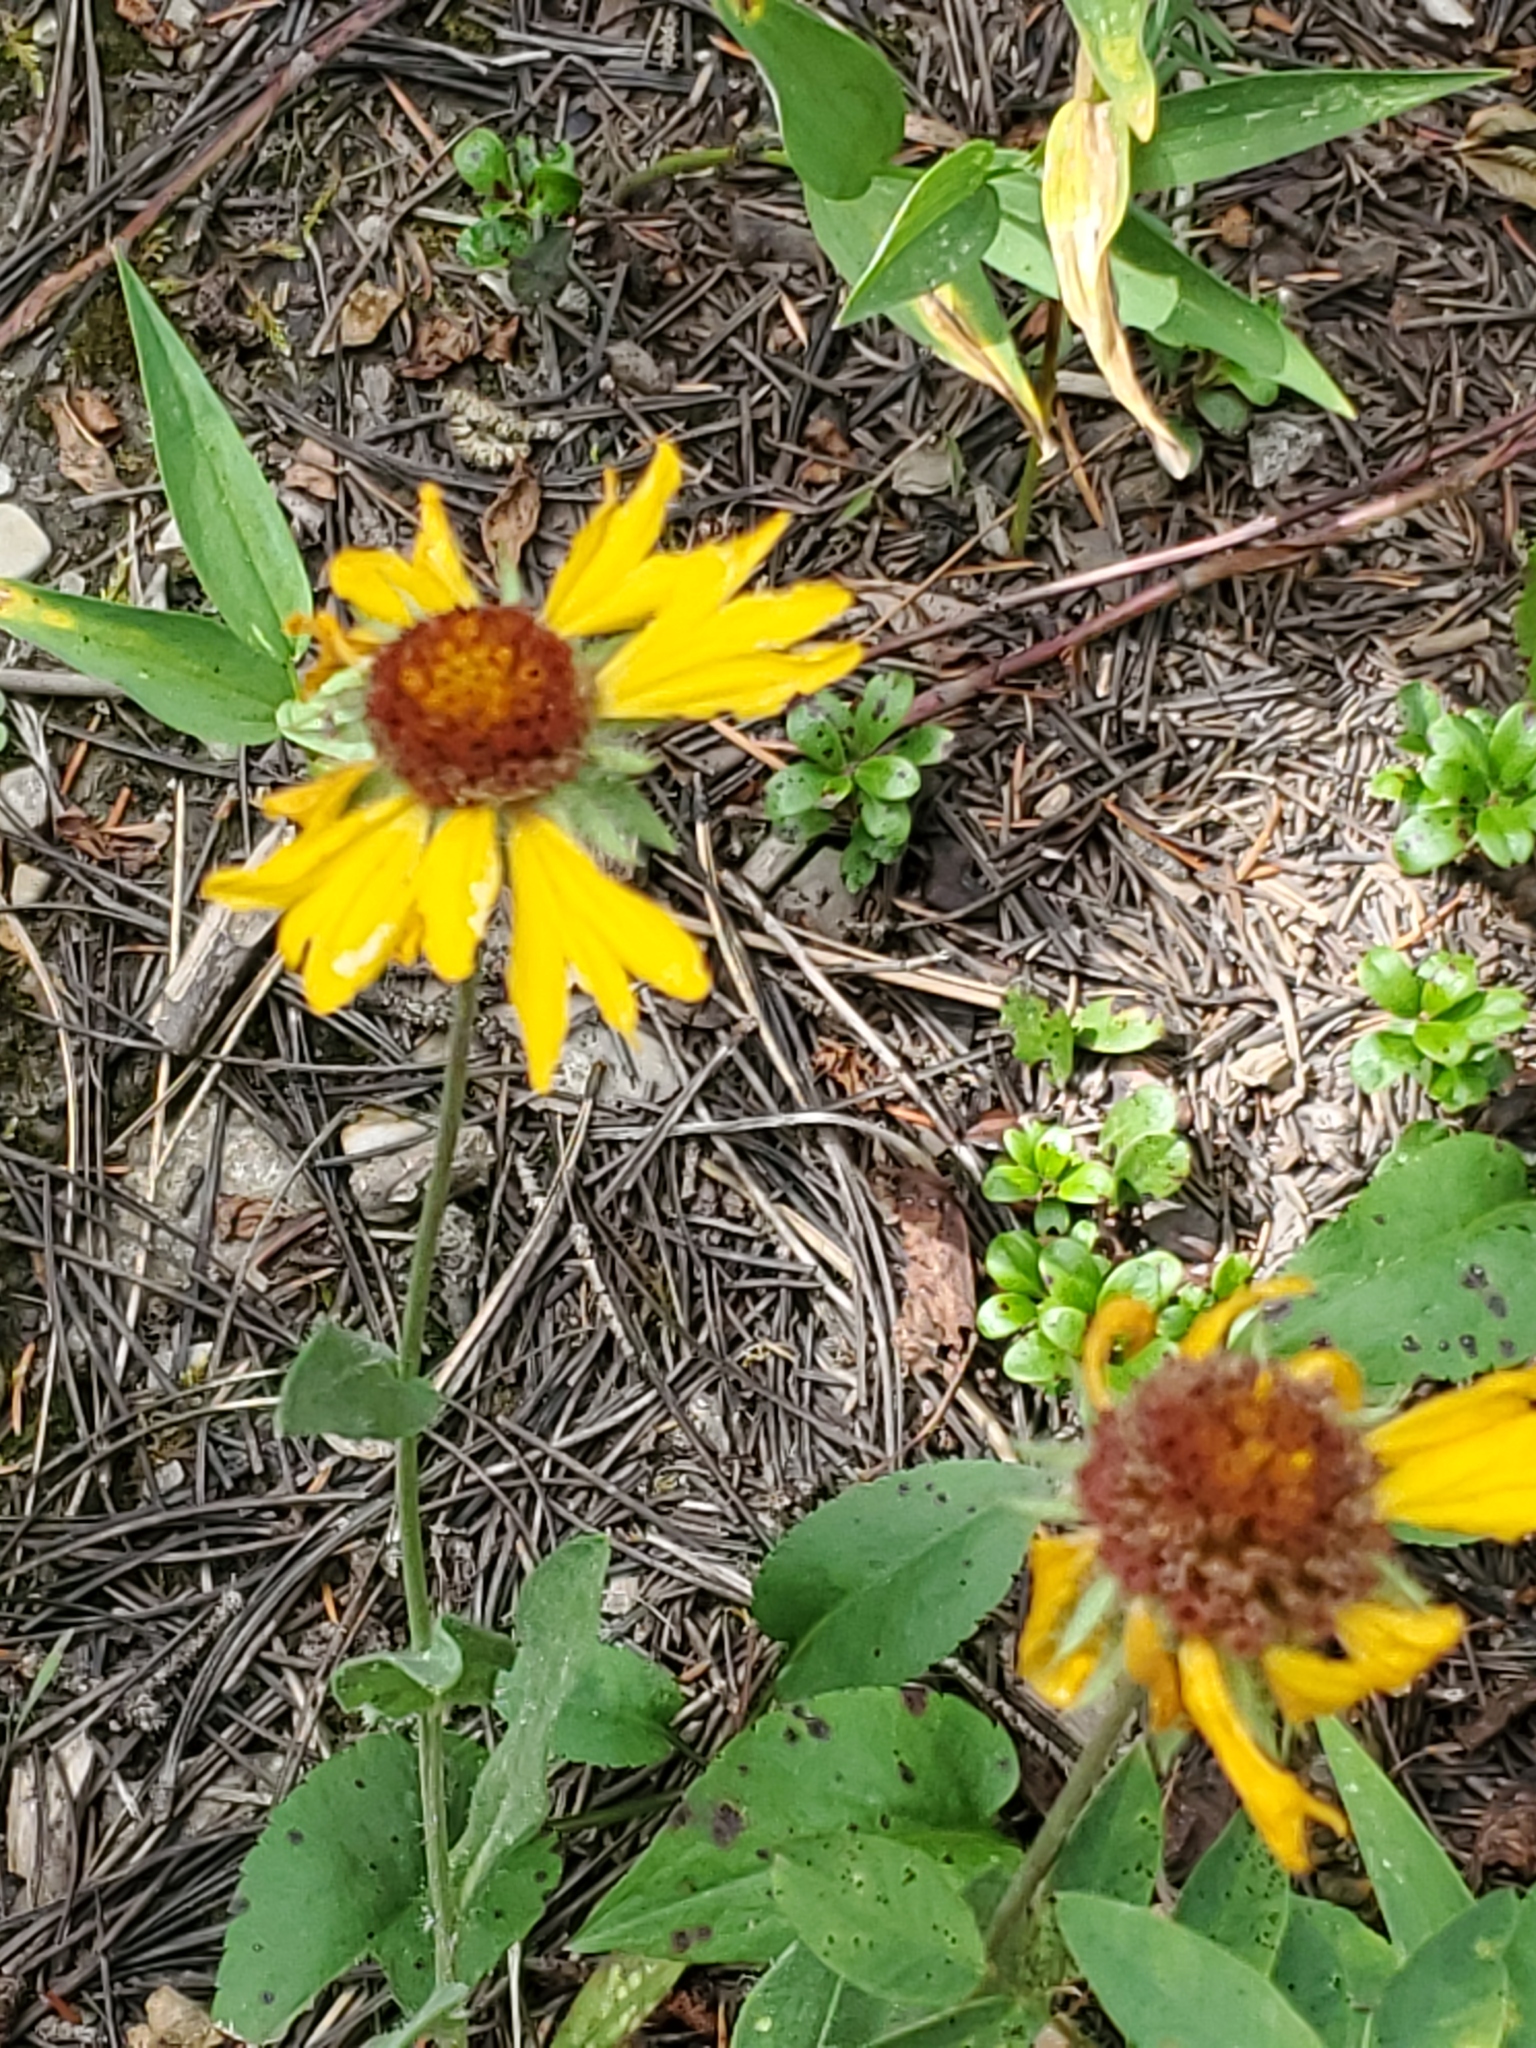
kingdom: Plantae
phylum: Tracheophyta
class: Magnoliopsida
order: Asterales
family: Asteraceae
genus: Gaillardia
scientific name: Gaillardia aristata
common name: Blanket-flower
